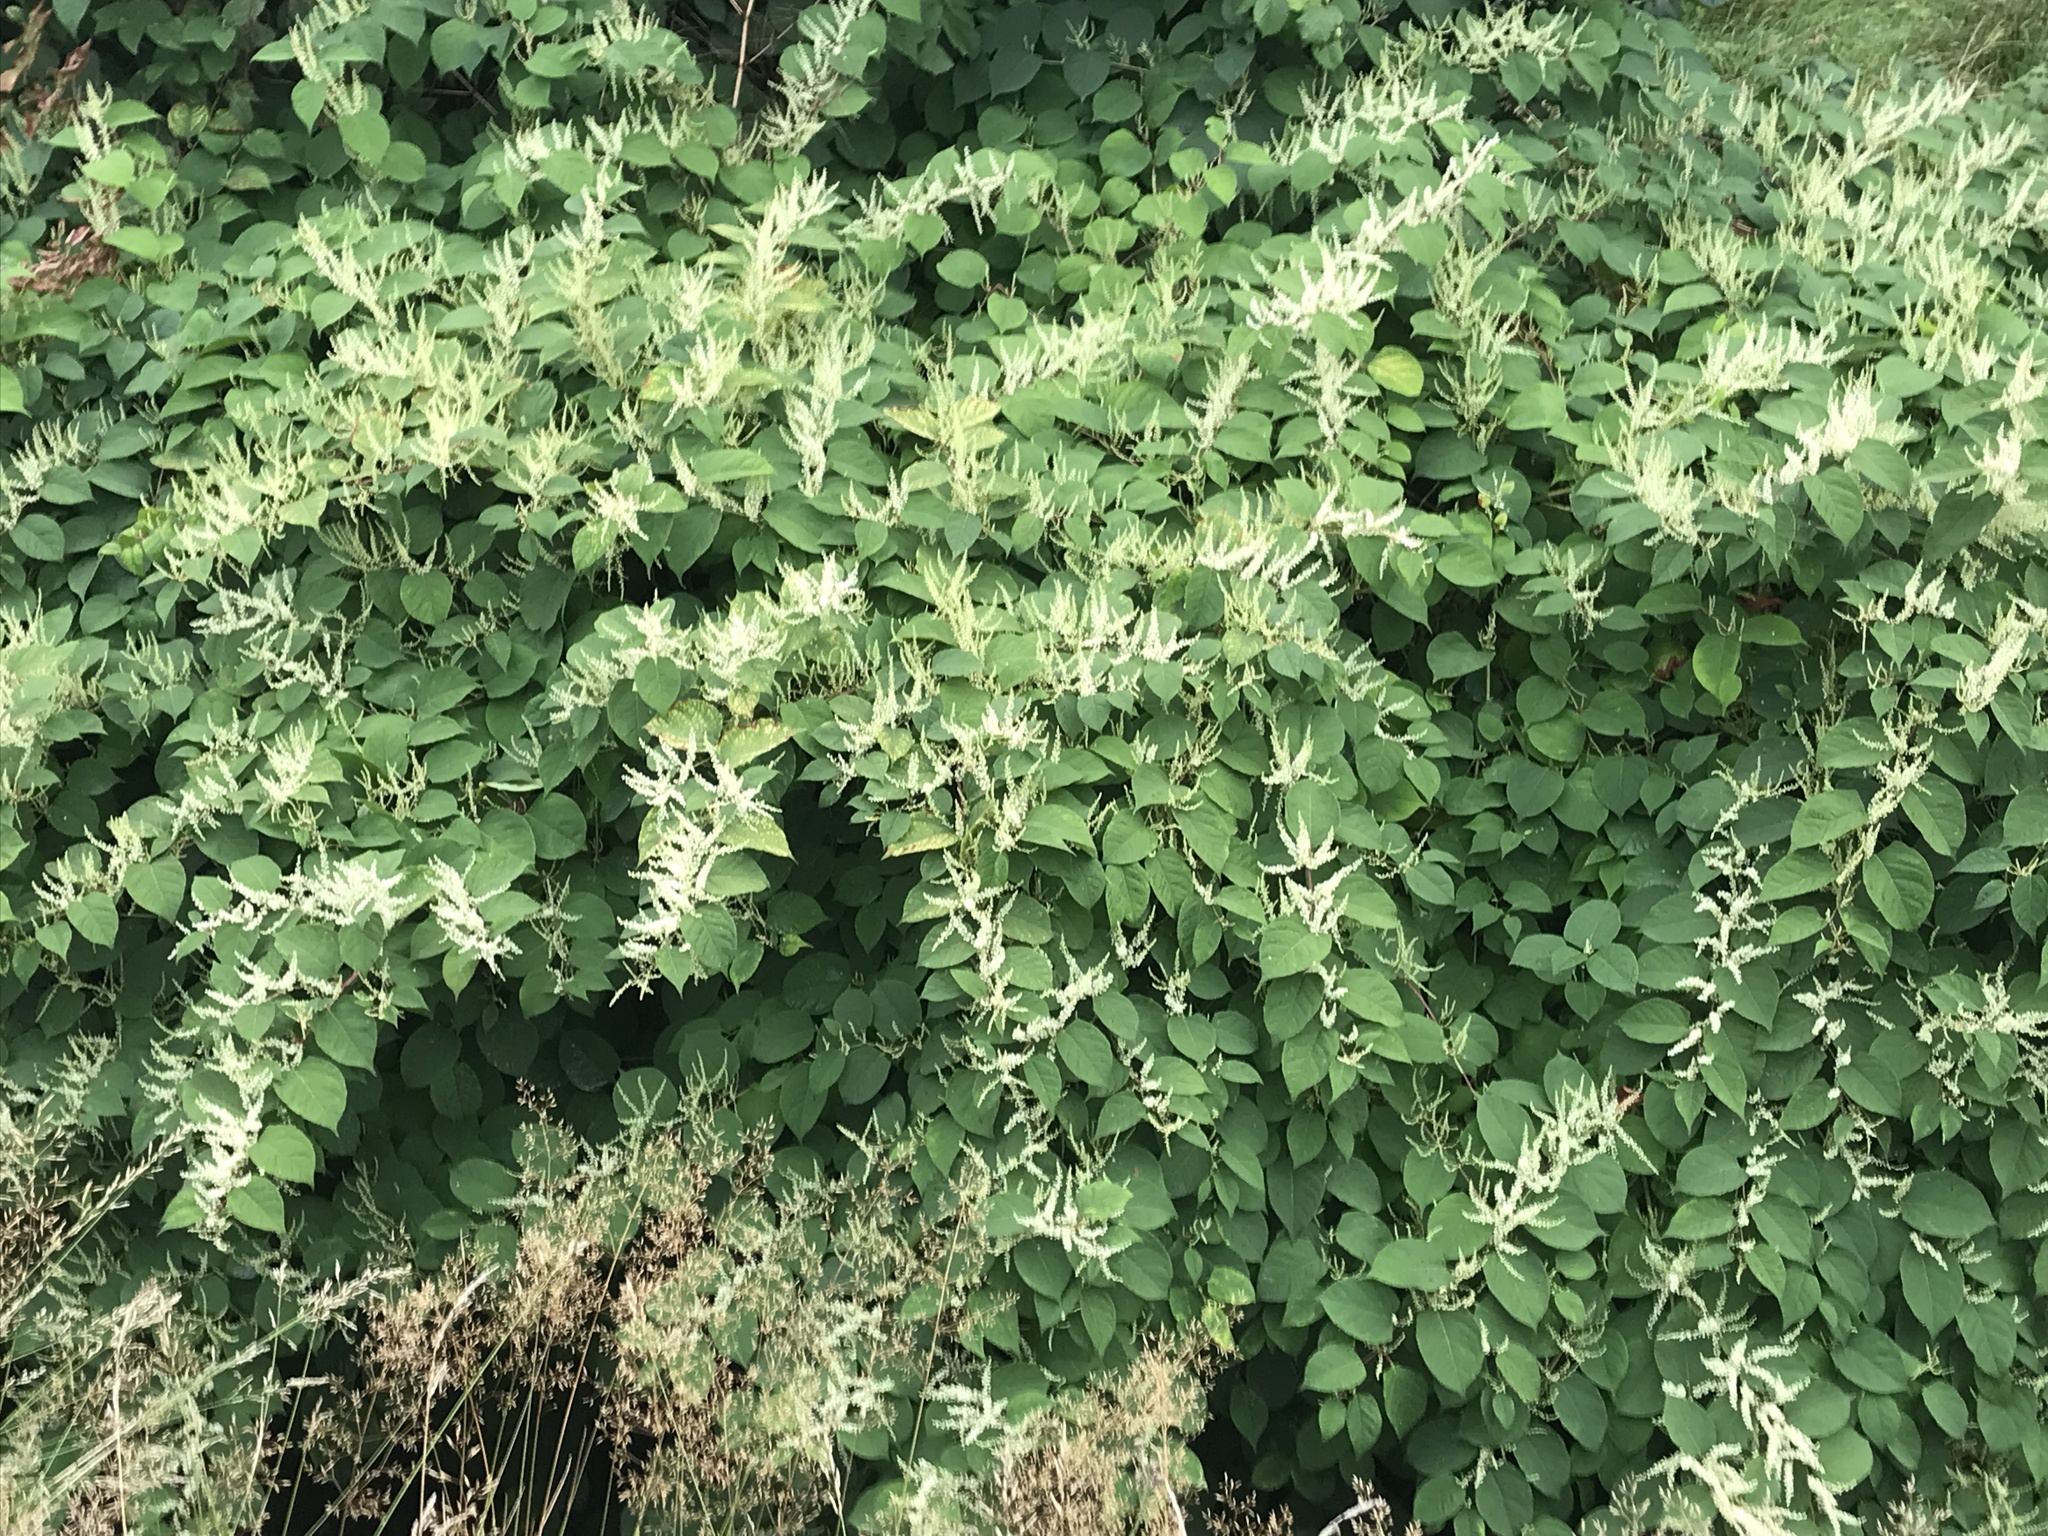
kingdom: Plantae
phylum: Tracheophyta
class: Magnoliopsida
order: Caryophyllales
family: Polygonaceae
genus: Reynoutria
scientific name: Reynoutria japonica
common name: Japanese knotweed
